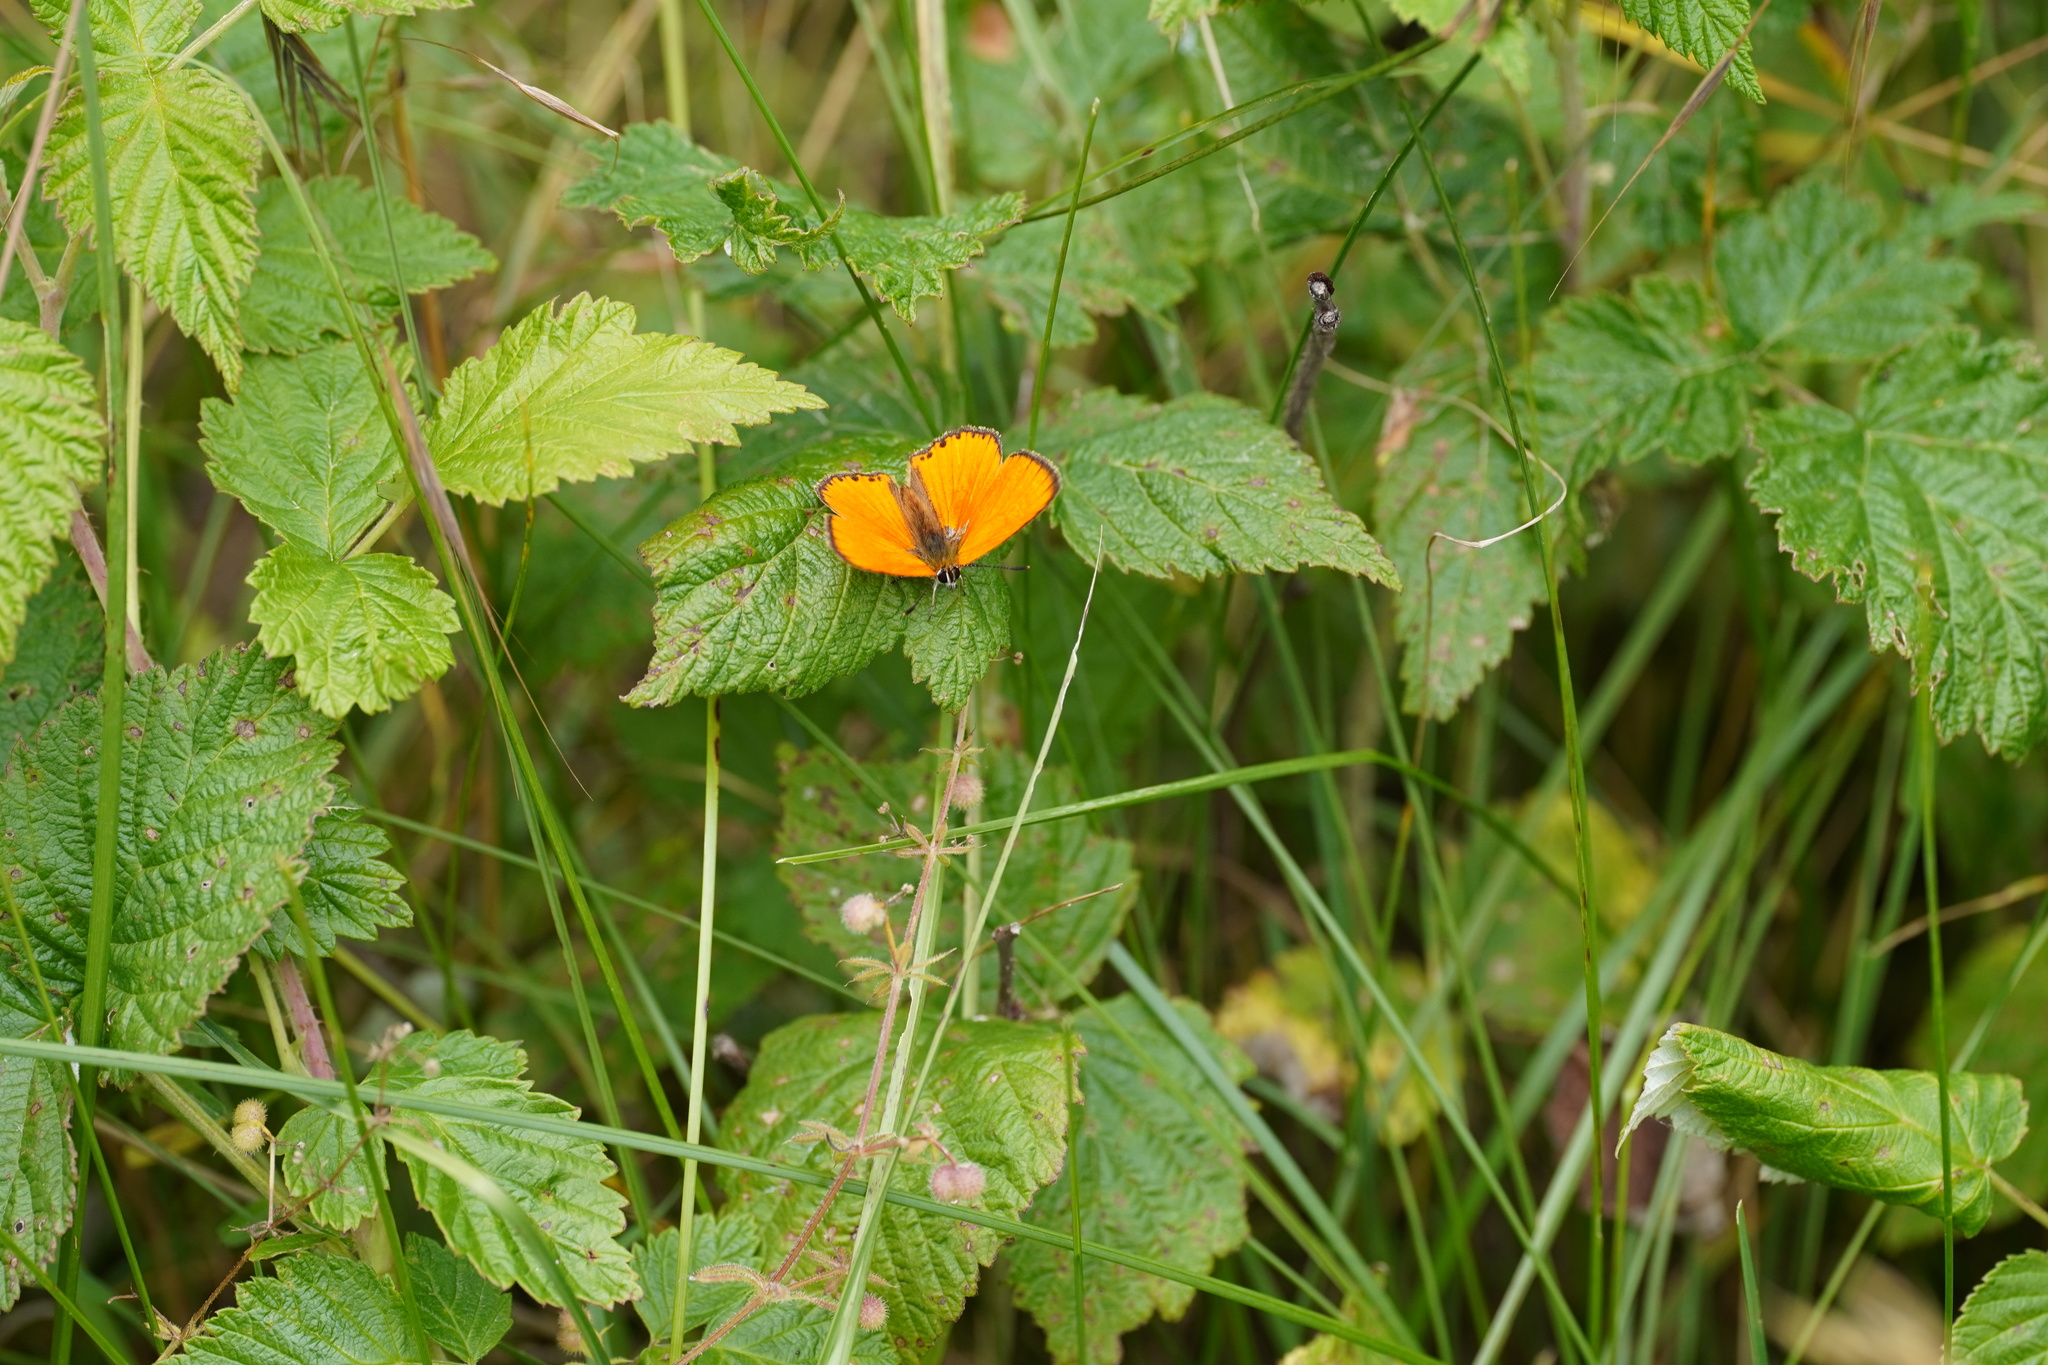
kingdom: Animalia
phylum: Arthropoda
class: Insecta
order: Lepidoptera
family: Lycaenidae
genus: Lycaena
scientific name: Lycaena virgaureae
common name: Scarce copper
